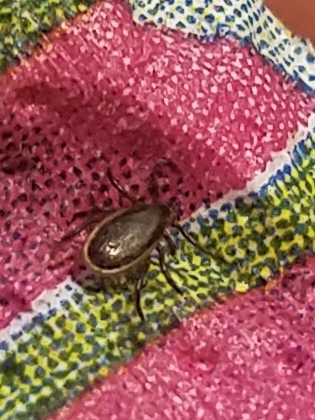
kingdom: Animalia
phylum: Arthropoda
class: Arachnida
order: Ixodida
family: Ixodidae
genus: Ixodes
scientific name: Ixodes scapularis
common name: Black legged tick
